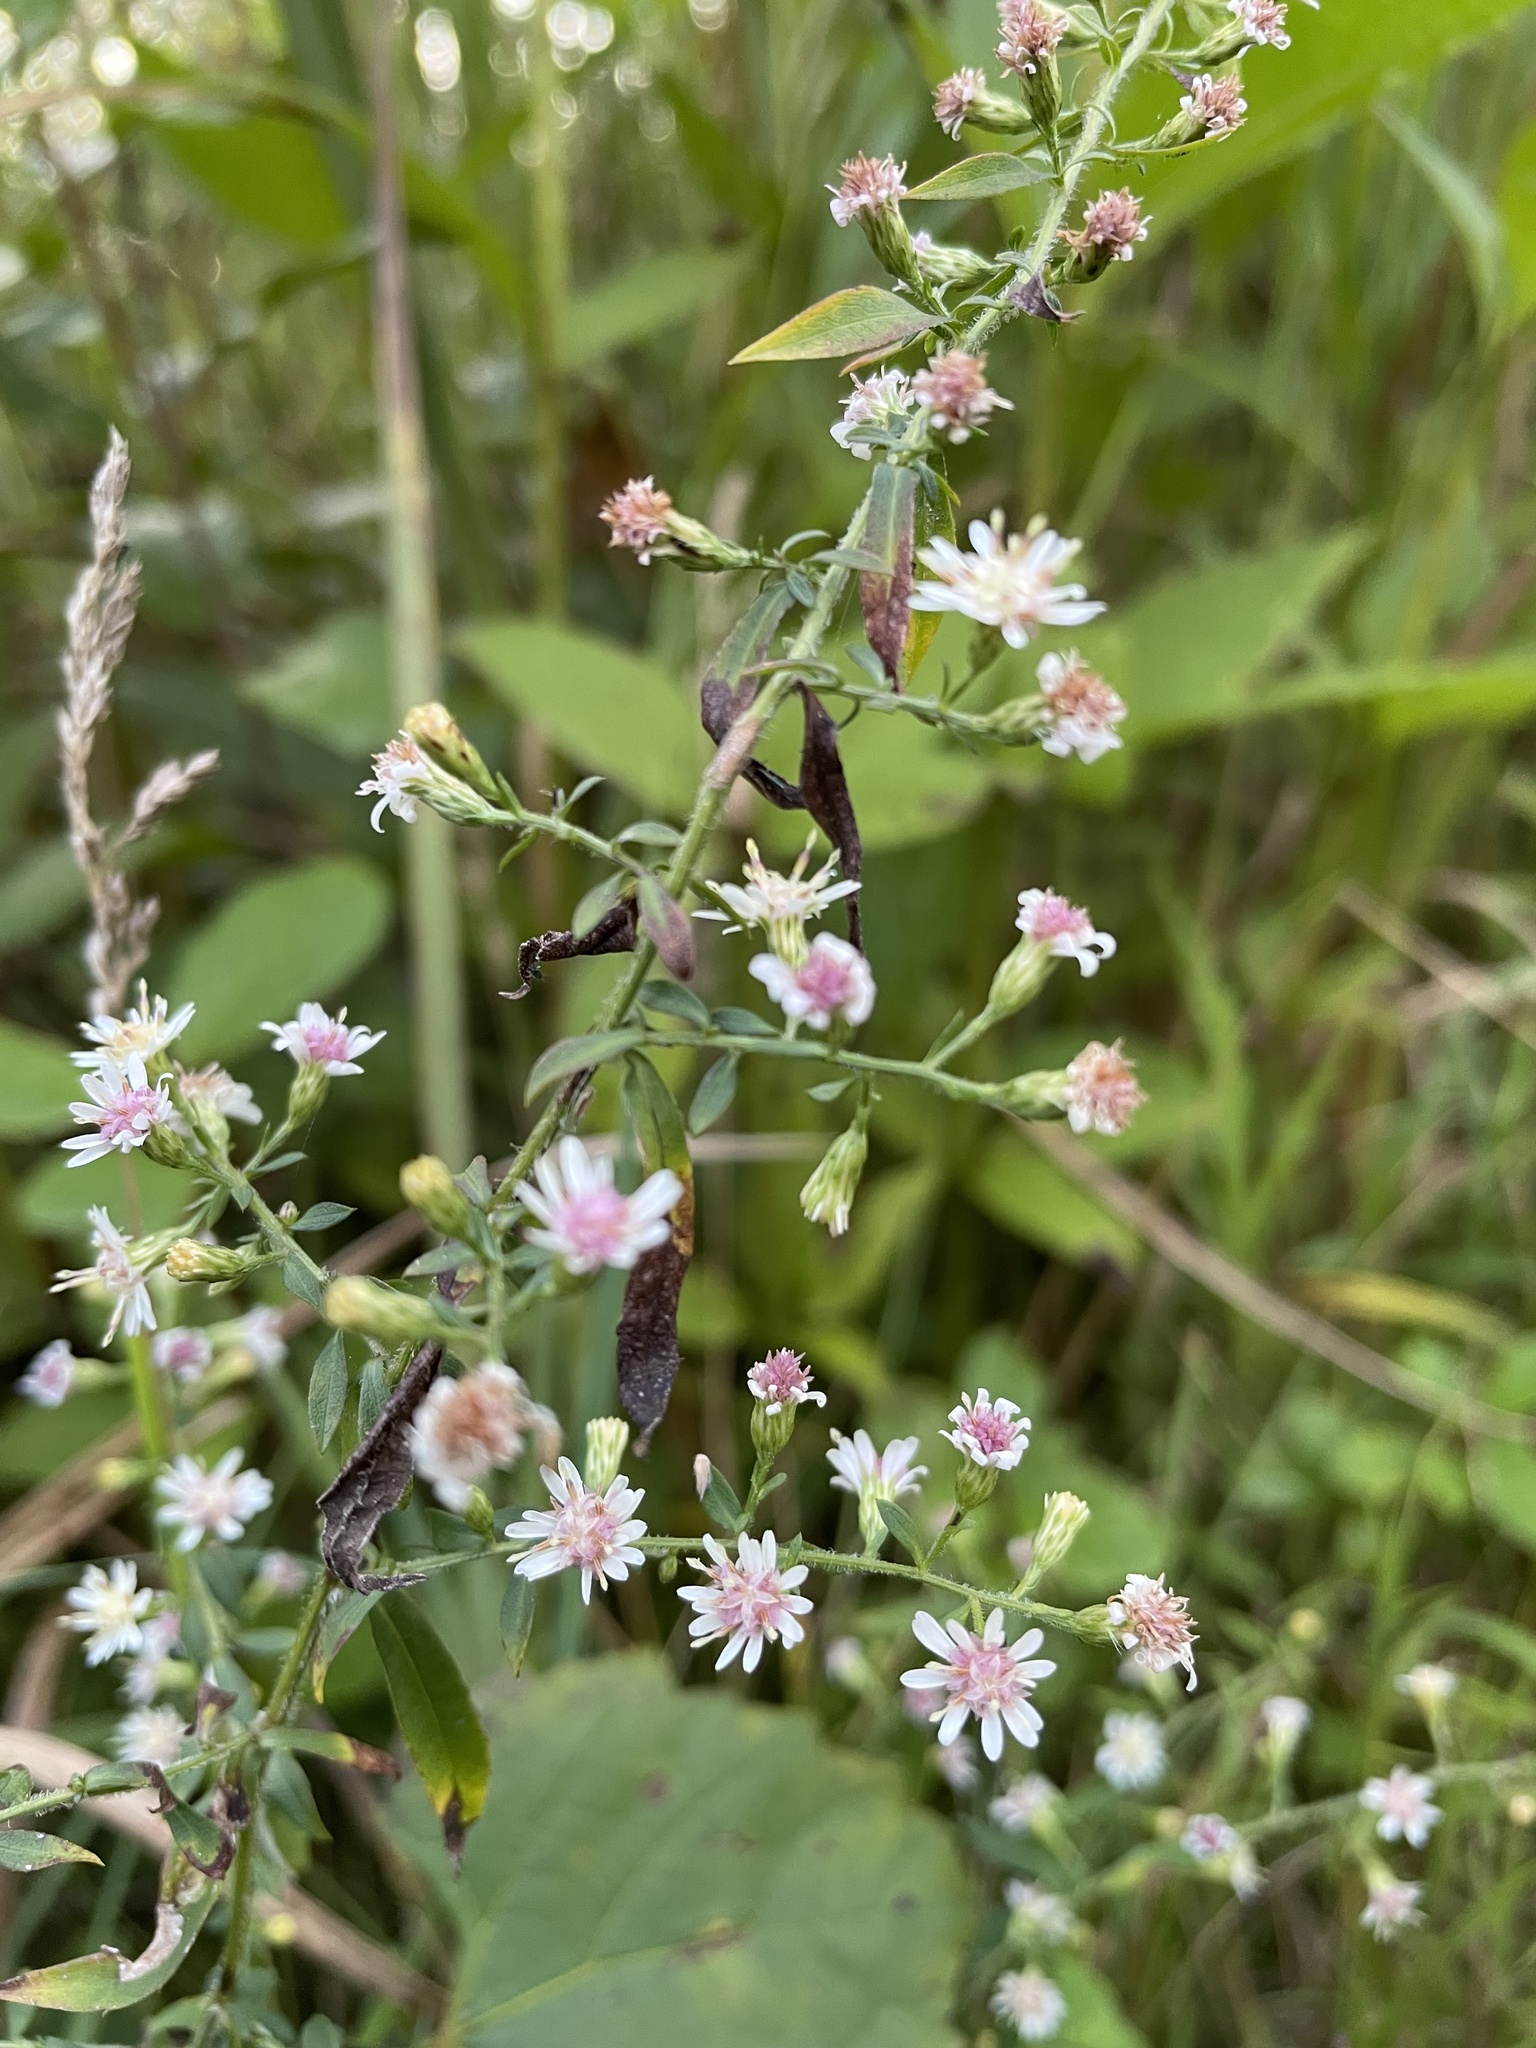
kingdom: Plantae
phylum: Tracheophyta
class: Magnoliopsida
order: Asterales
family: Asteraceae
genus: Symphyotrichum
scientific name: Symphyotrichum lateriflorum
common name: Calico aster
